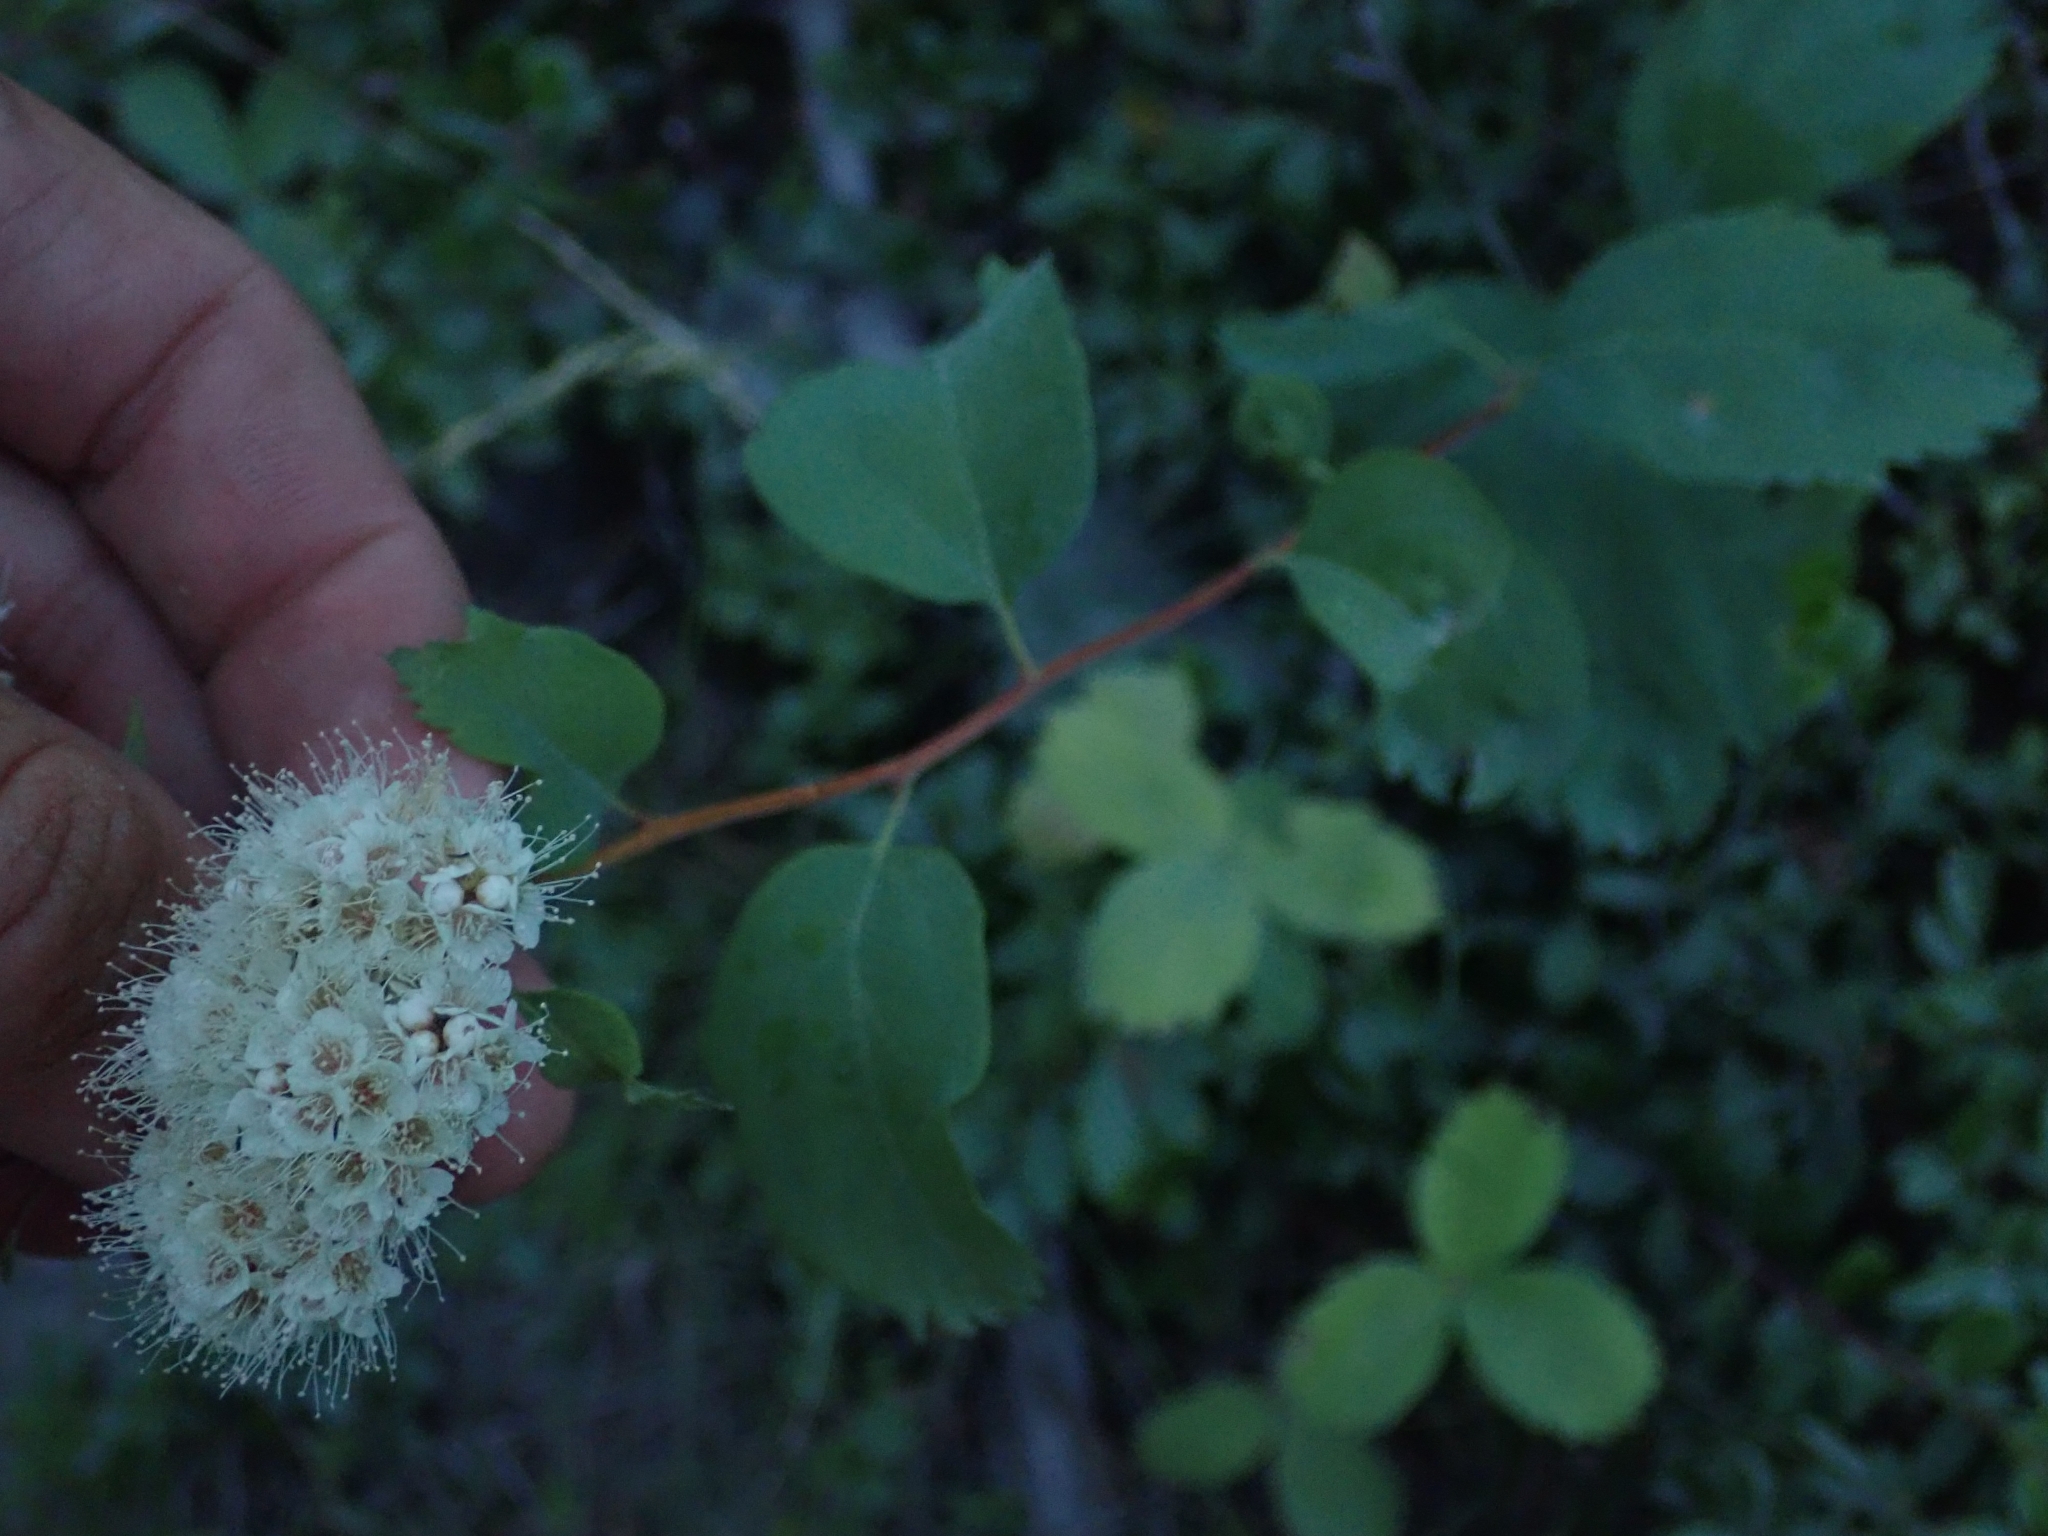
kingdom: Plantae
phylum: Tracheophyta
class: Magnoliopsida
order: Rosales
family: Rosaceae
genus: Spiraea
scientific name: Spiraea lucida
